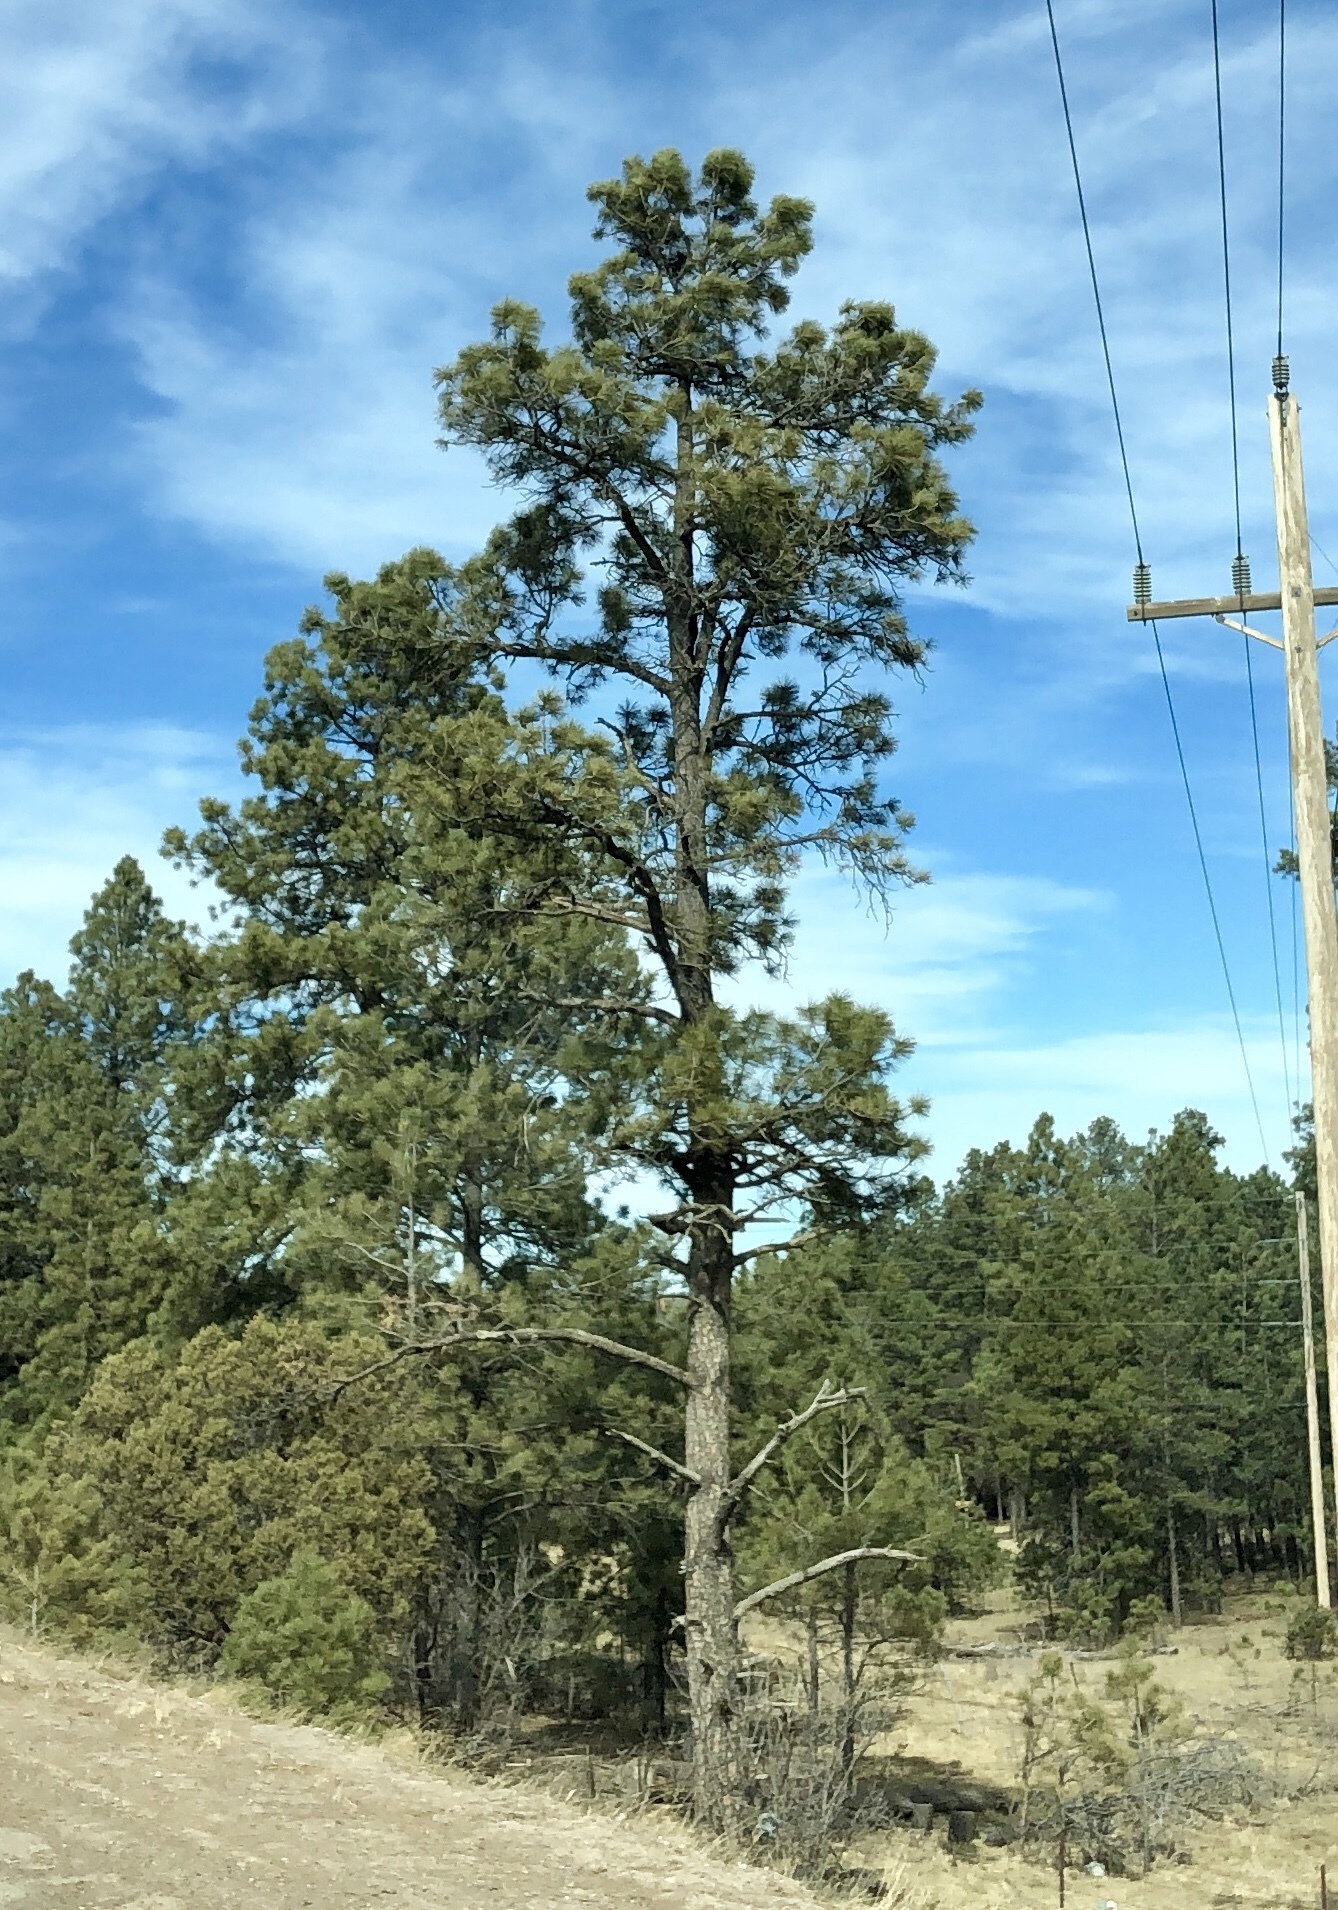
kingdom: Plantae
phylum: Tracheophyta
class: Pinopsida
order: Pinales
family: Pinaceae
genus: Pinus
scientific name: Pinus ponderosa
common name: Western yellow-pine
